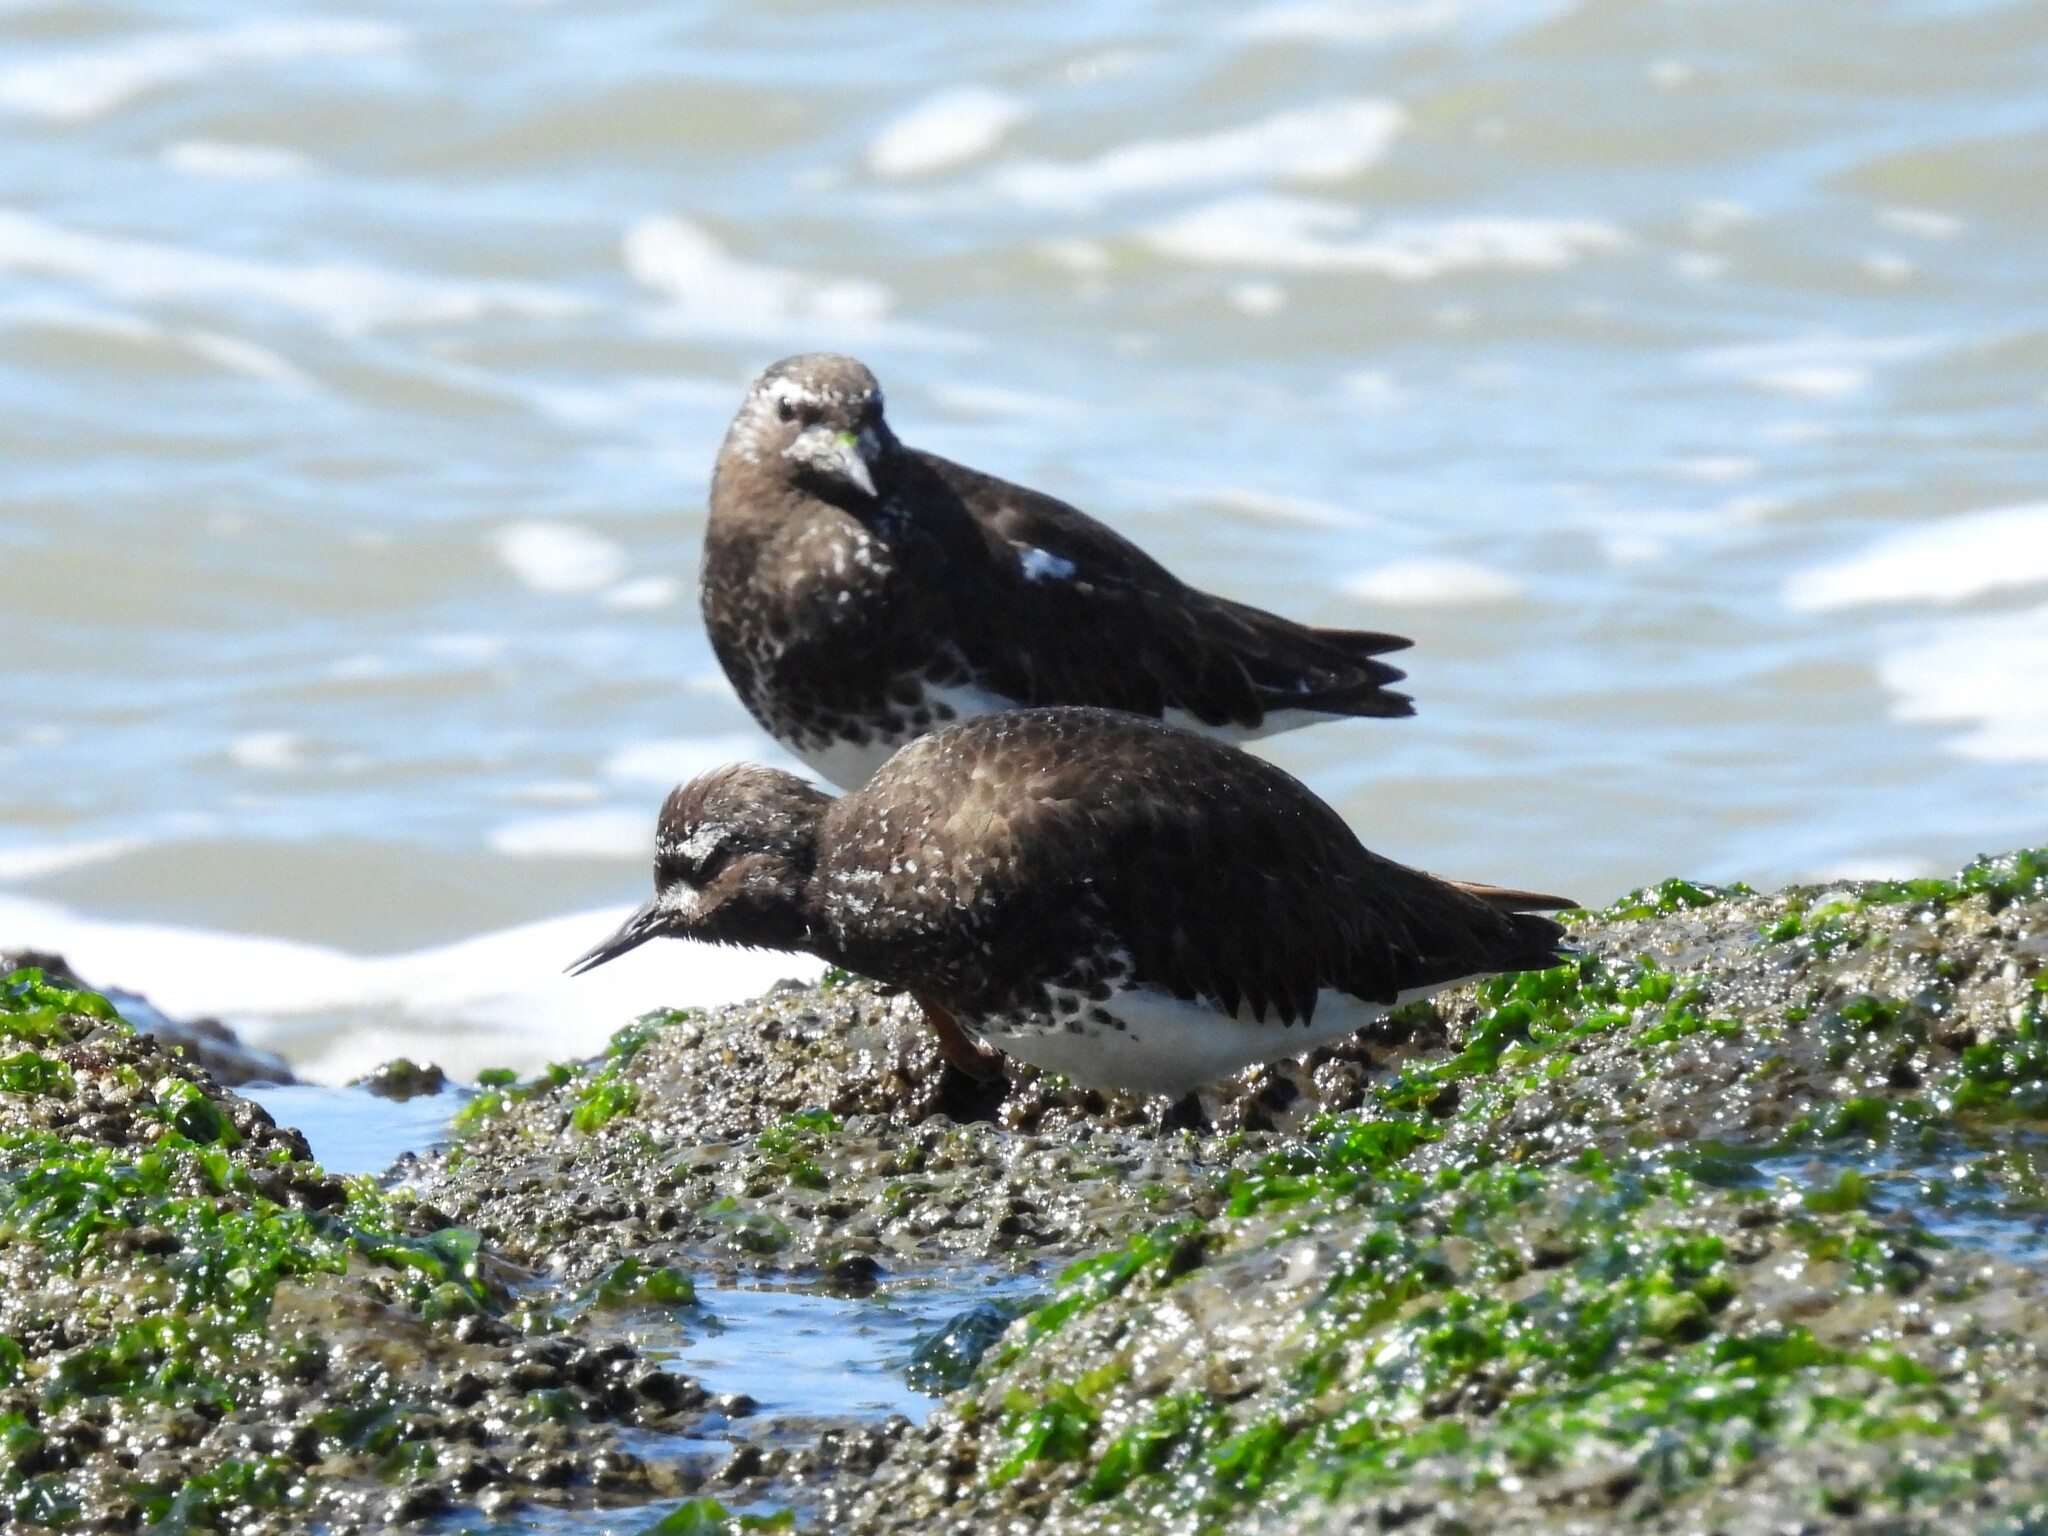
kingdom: Animalia
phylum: Chordata
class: Aves
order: Charadriiformes
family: Scolopacidae
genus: Arenaria
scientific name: Arenaria melanocephala
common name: Black turnstone
